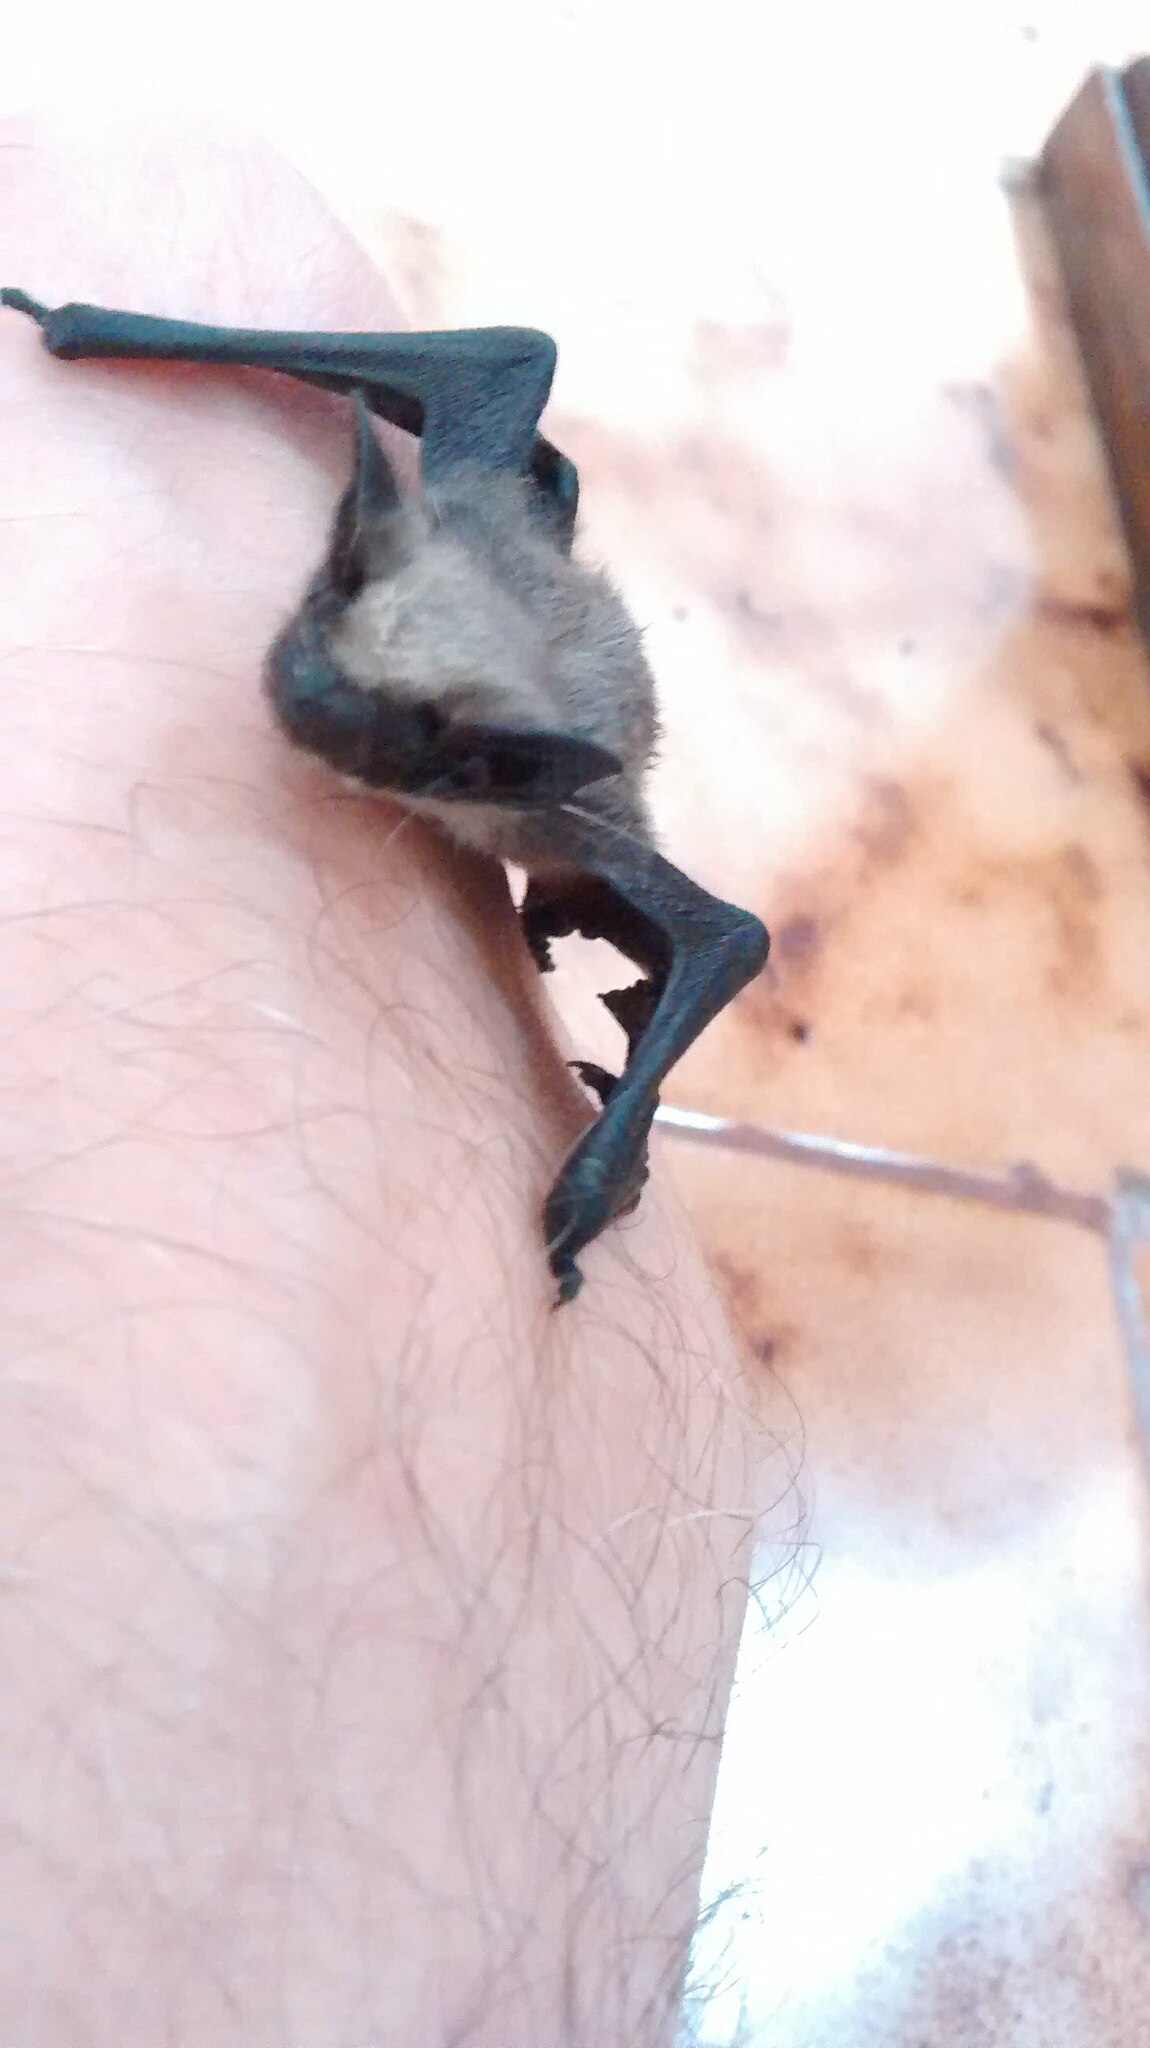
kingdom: Animalia
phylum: Chordata
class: Mammalia
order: Chiroptera
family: Vespertilionidae
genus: Parastrellus
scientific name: Parastrellus hesperus
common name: Canyon bat
